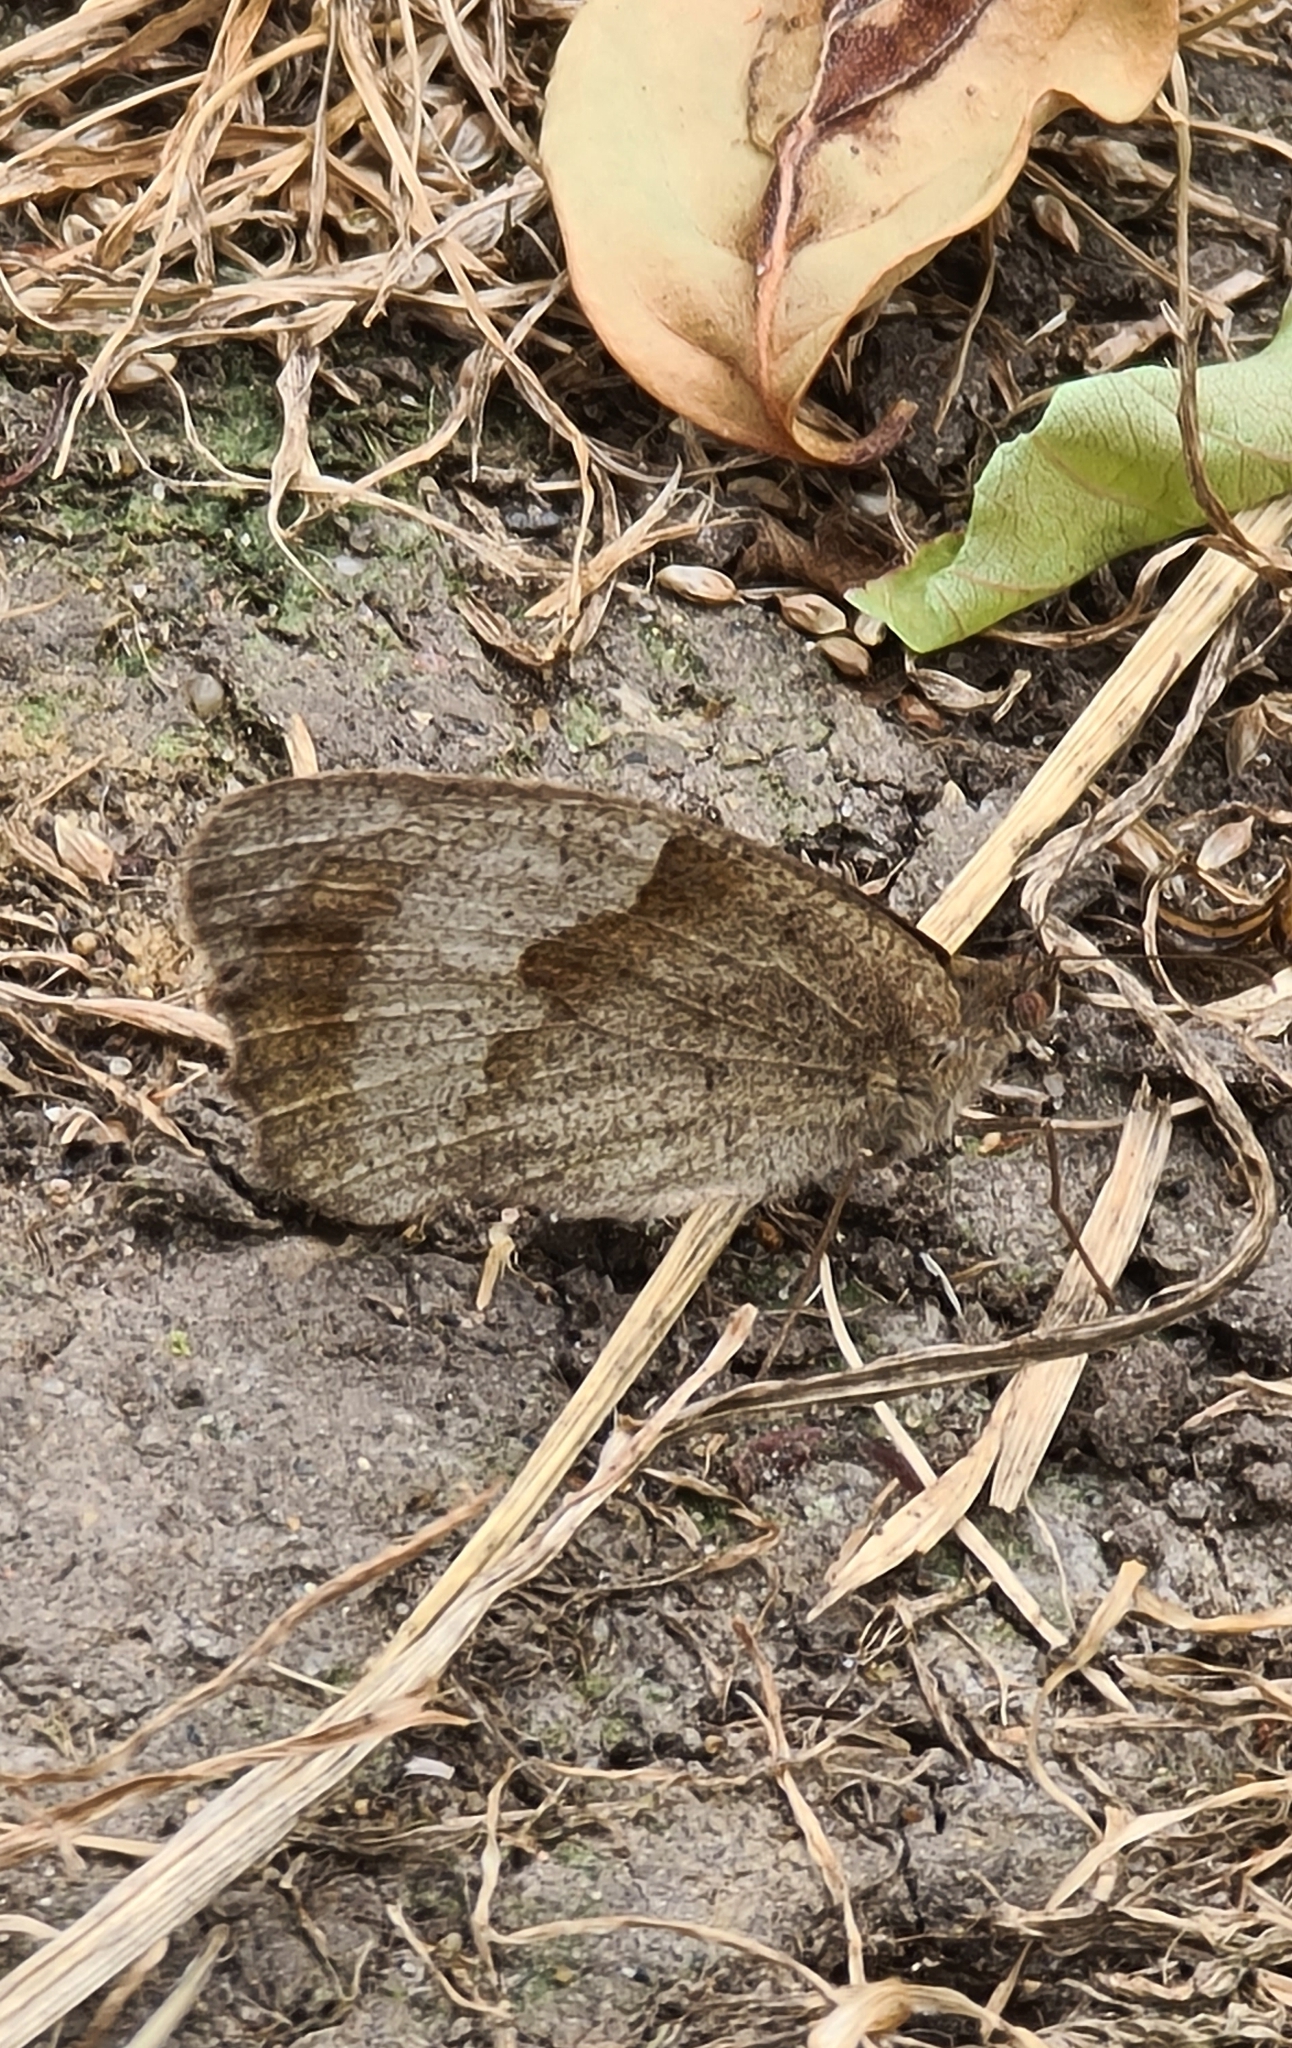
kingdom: Animalia
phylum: Arthropoda
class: Insecta
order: Lepidoptera
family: Nymphalidae
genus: Maniola
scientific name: Maniola jurtina
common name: Meadow brown
